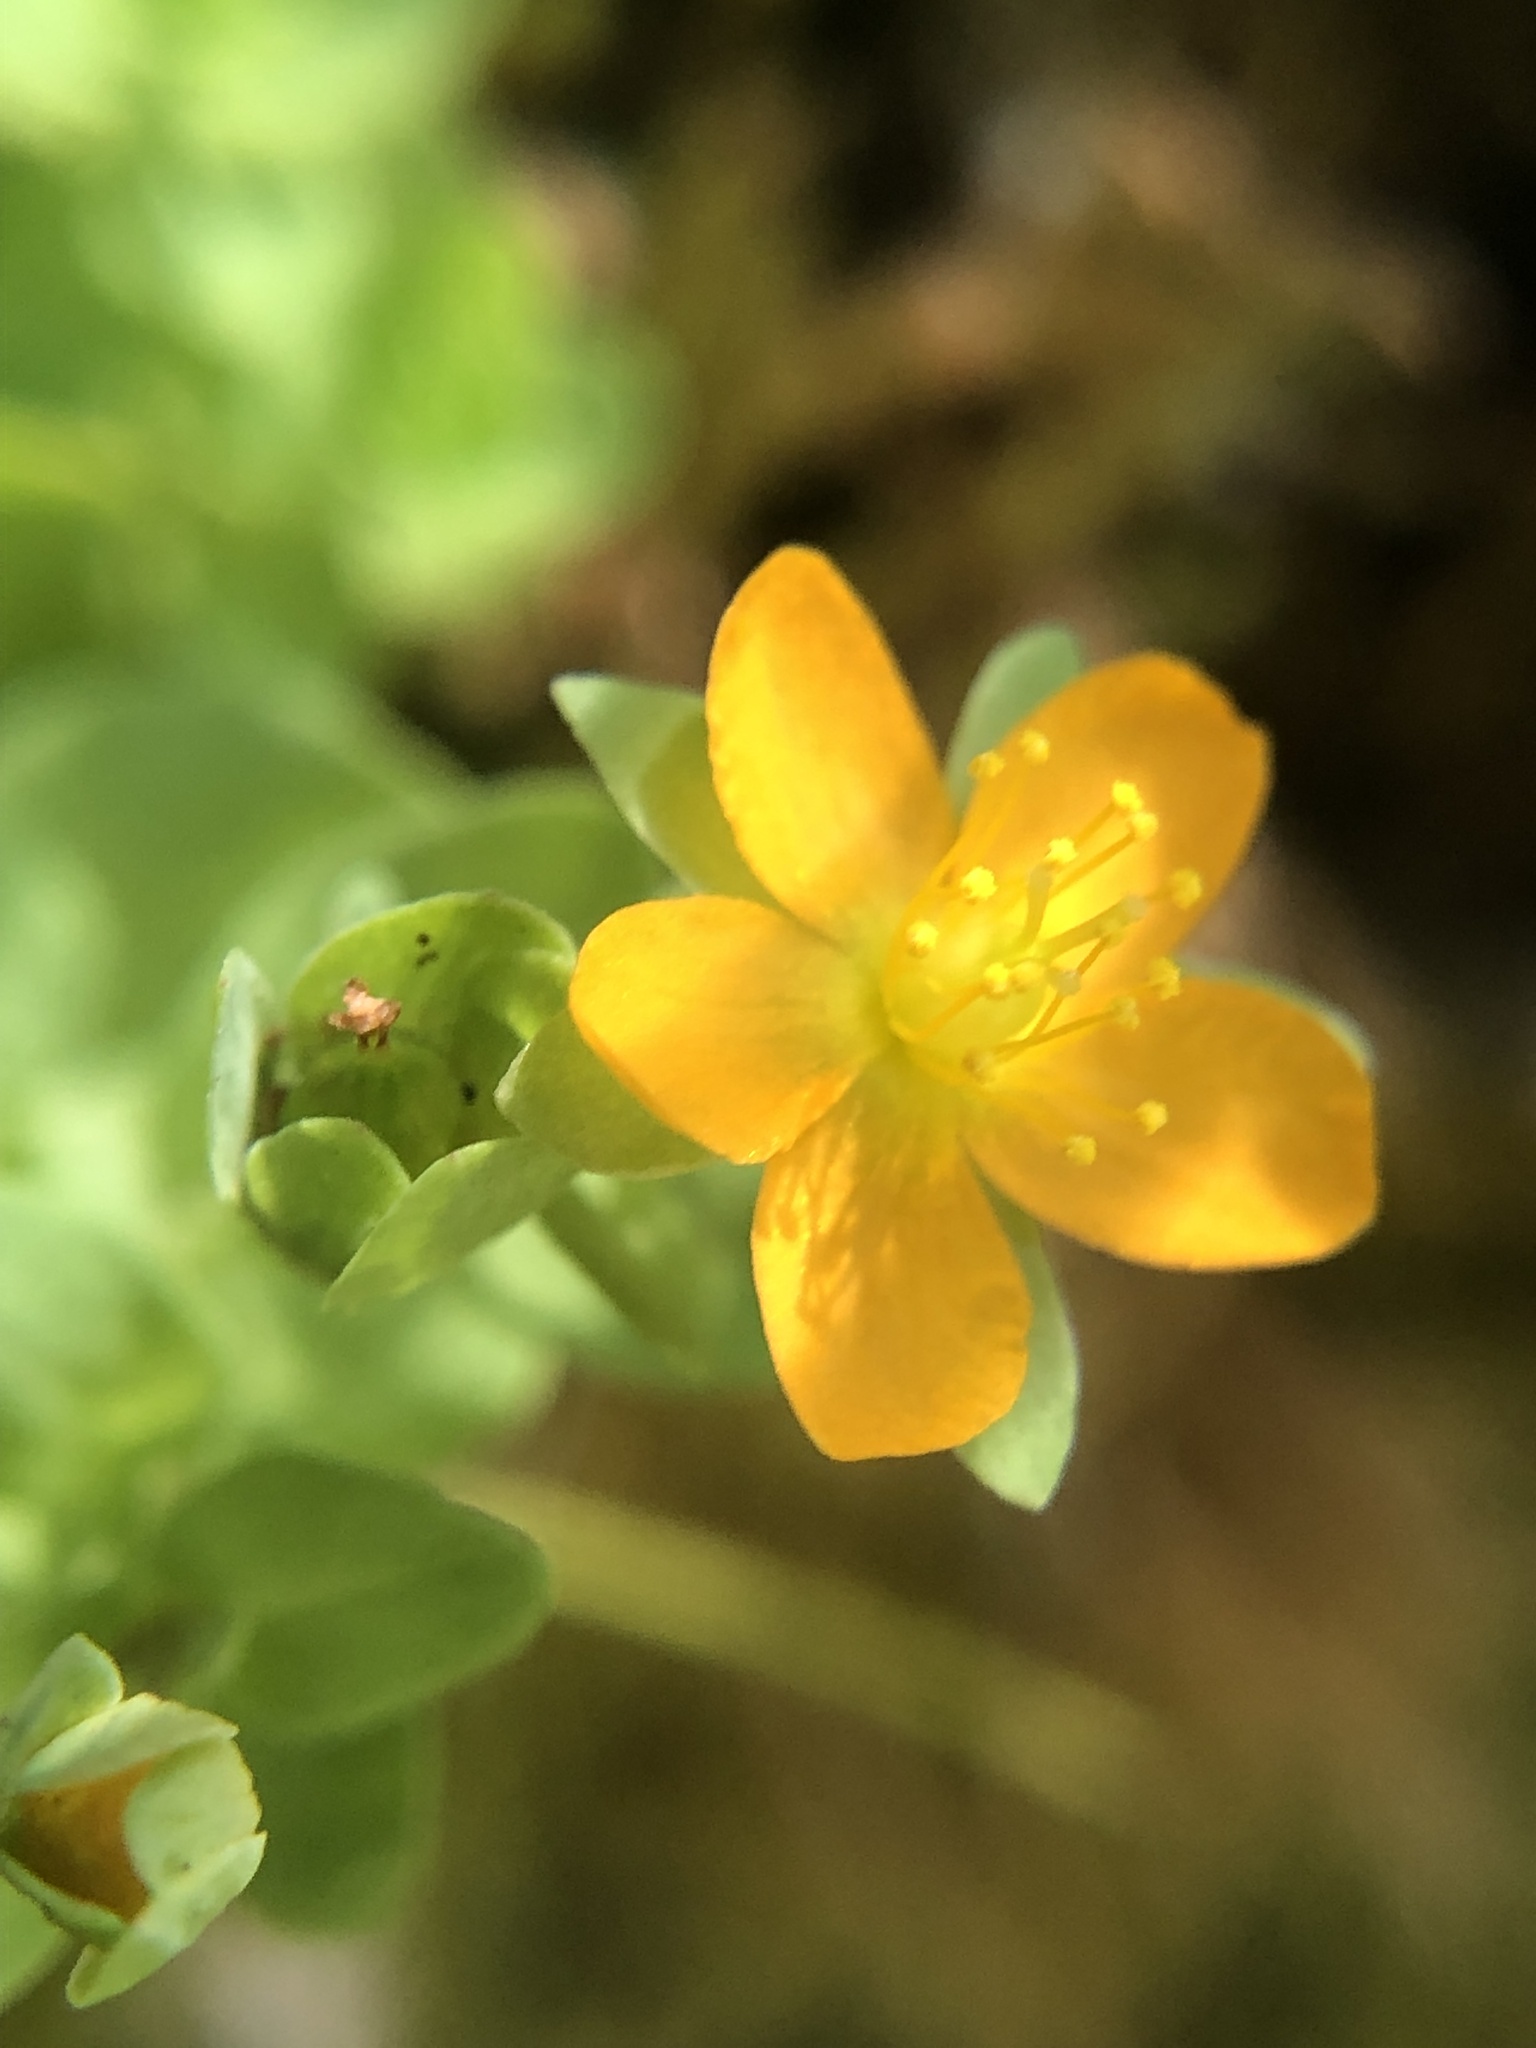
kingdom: Plantae
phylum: Tracheophyta
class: Magnoliopsida
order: Malpighiales
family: Hypericaceae
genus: Hypericum
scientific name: Hypericum anagalloides
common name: Bog st. john's-wort
